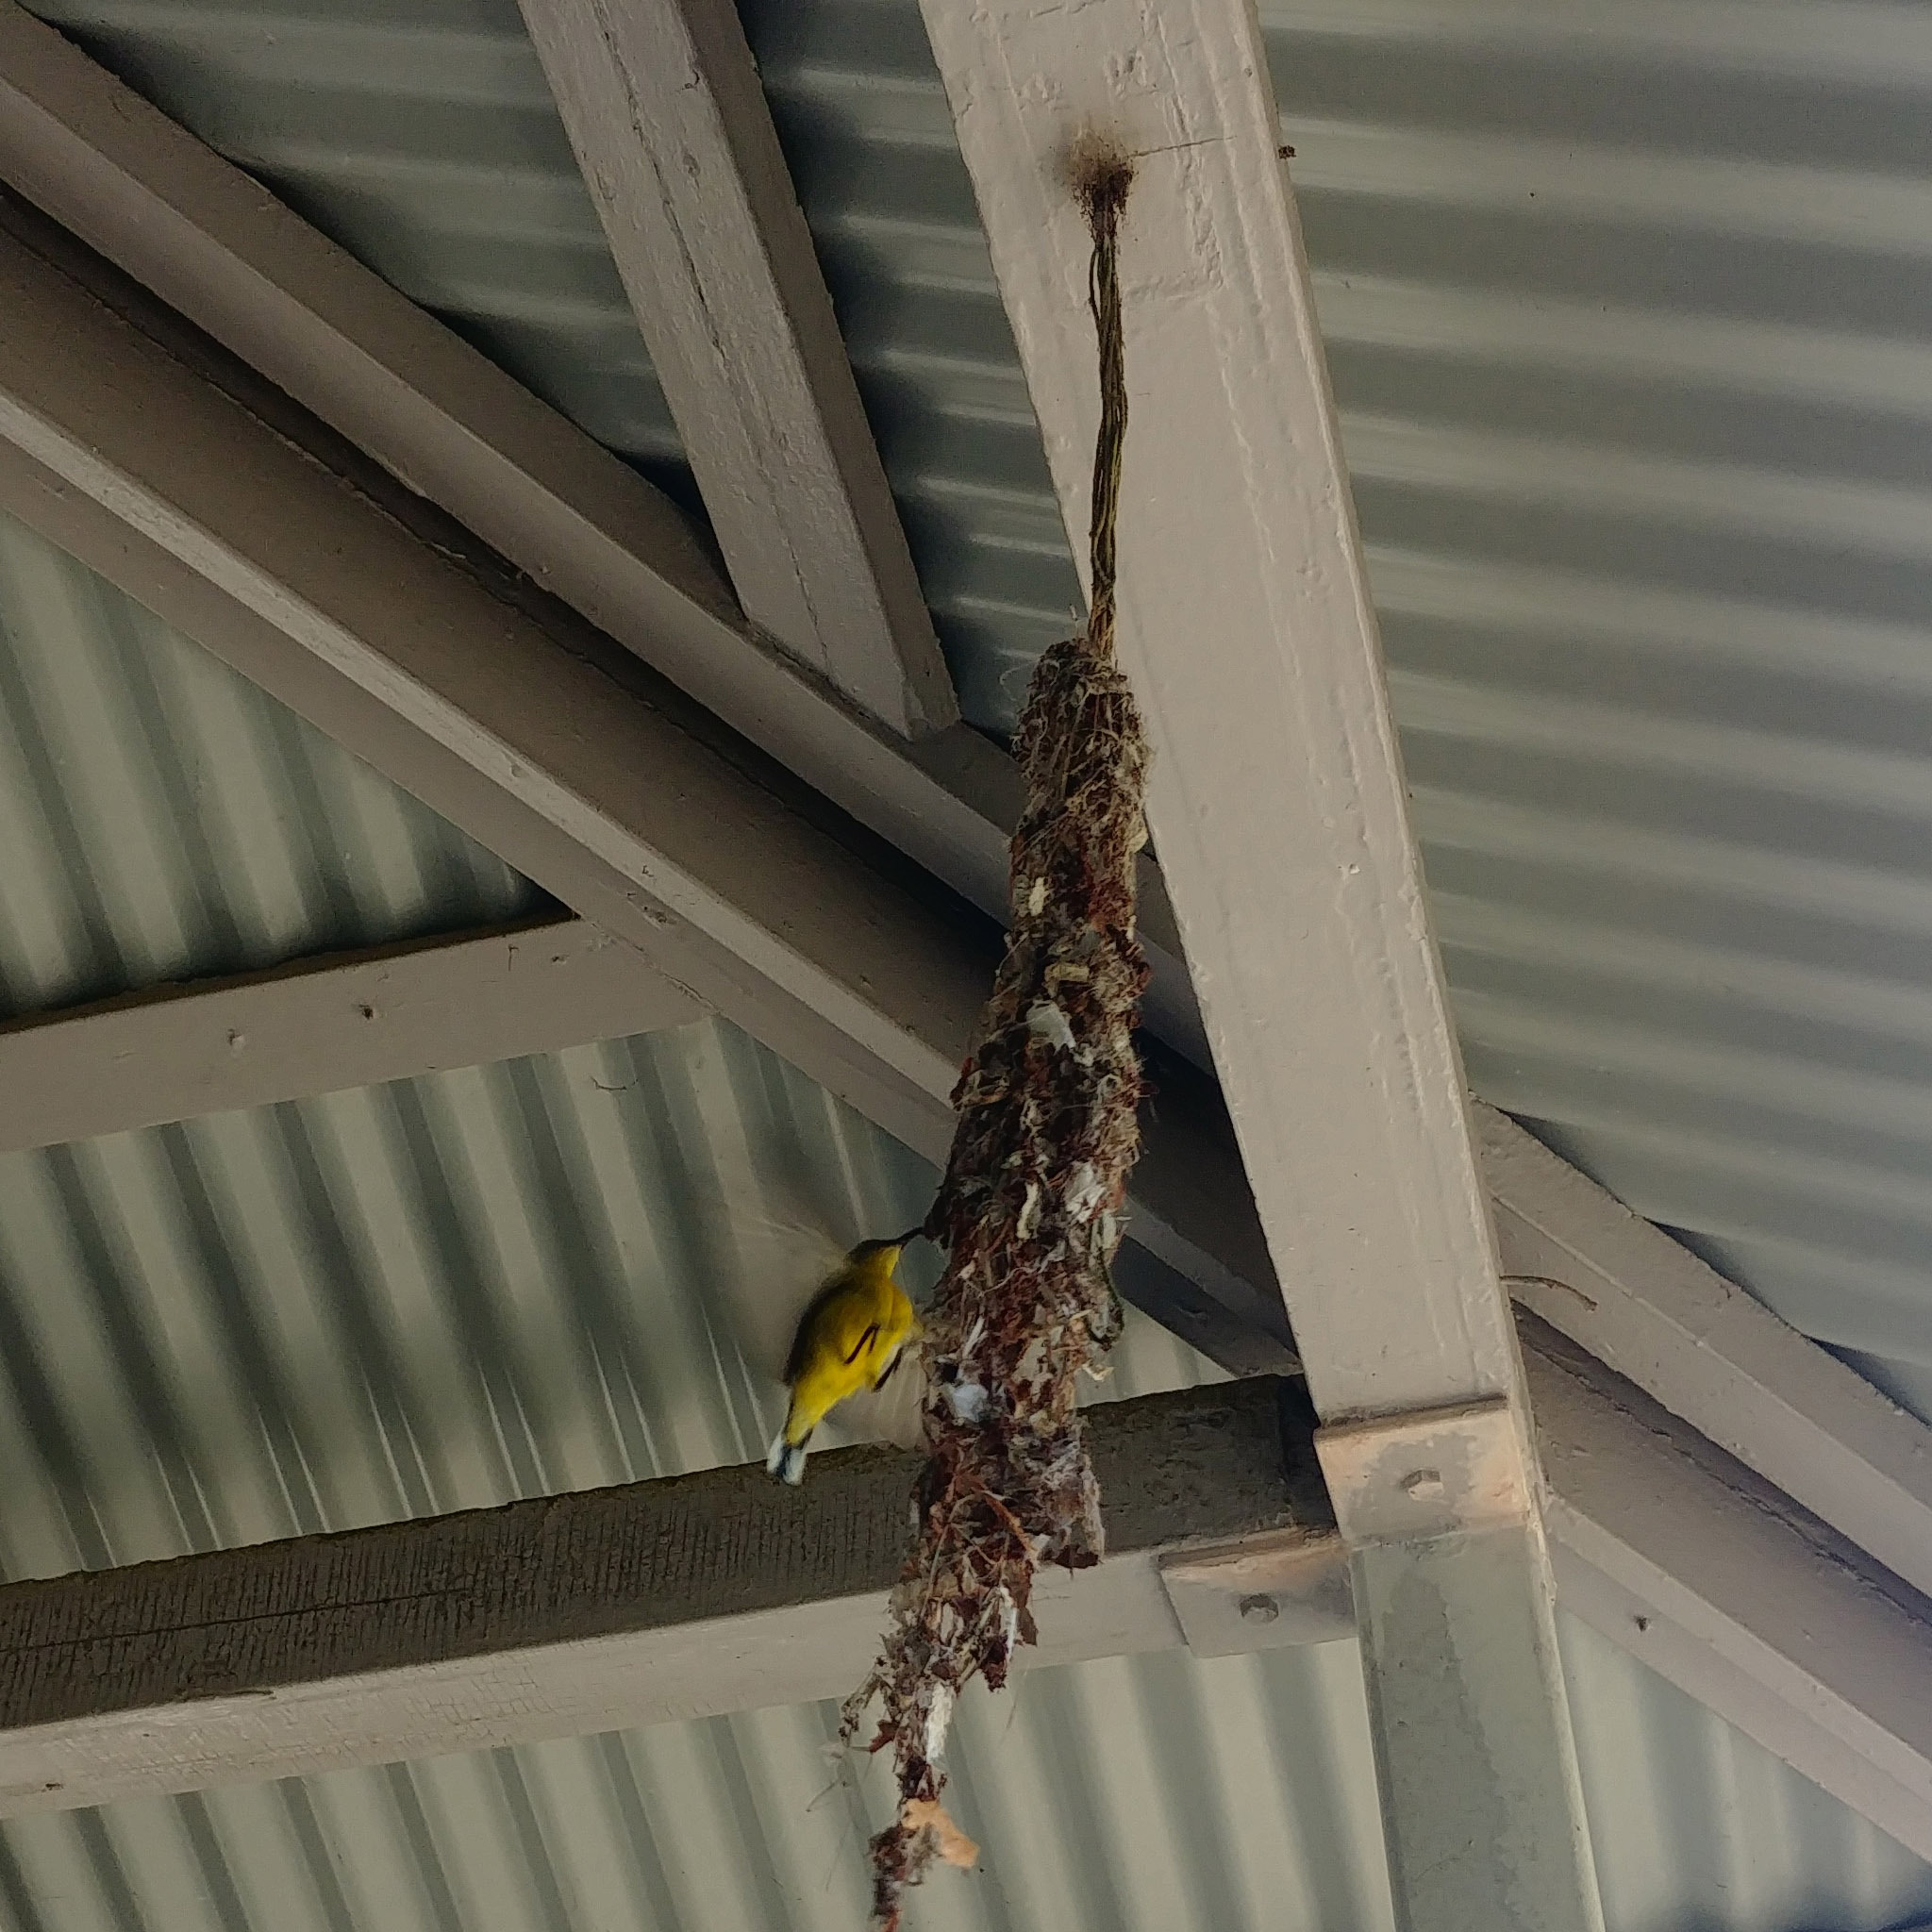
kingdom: Animalia
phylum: Chordata
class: Aves
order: Passeriformes
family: Nectariniidae
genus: Cinnyris
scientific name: Cinnyris
